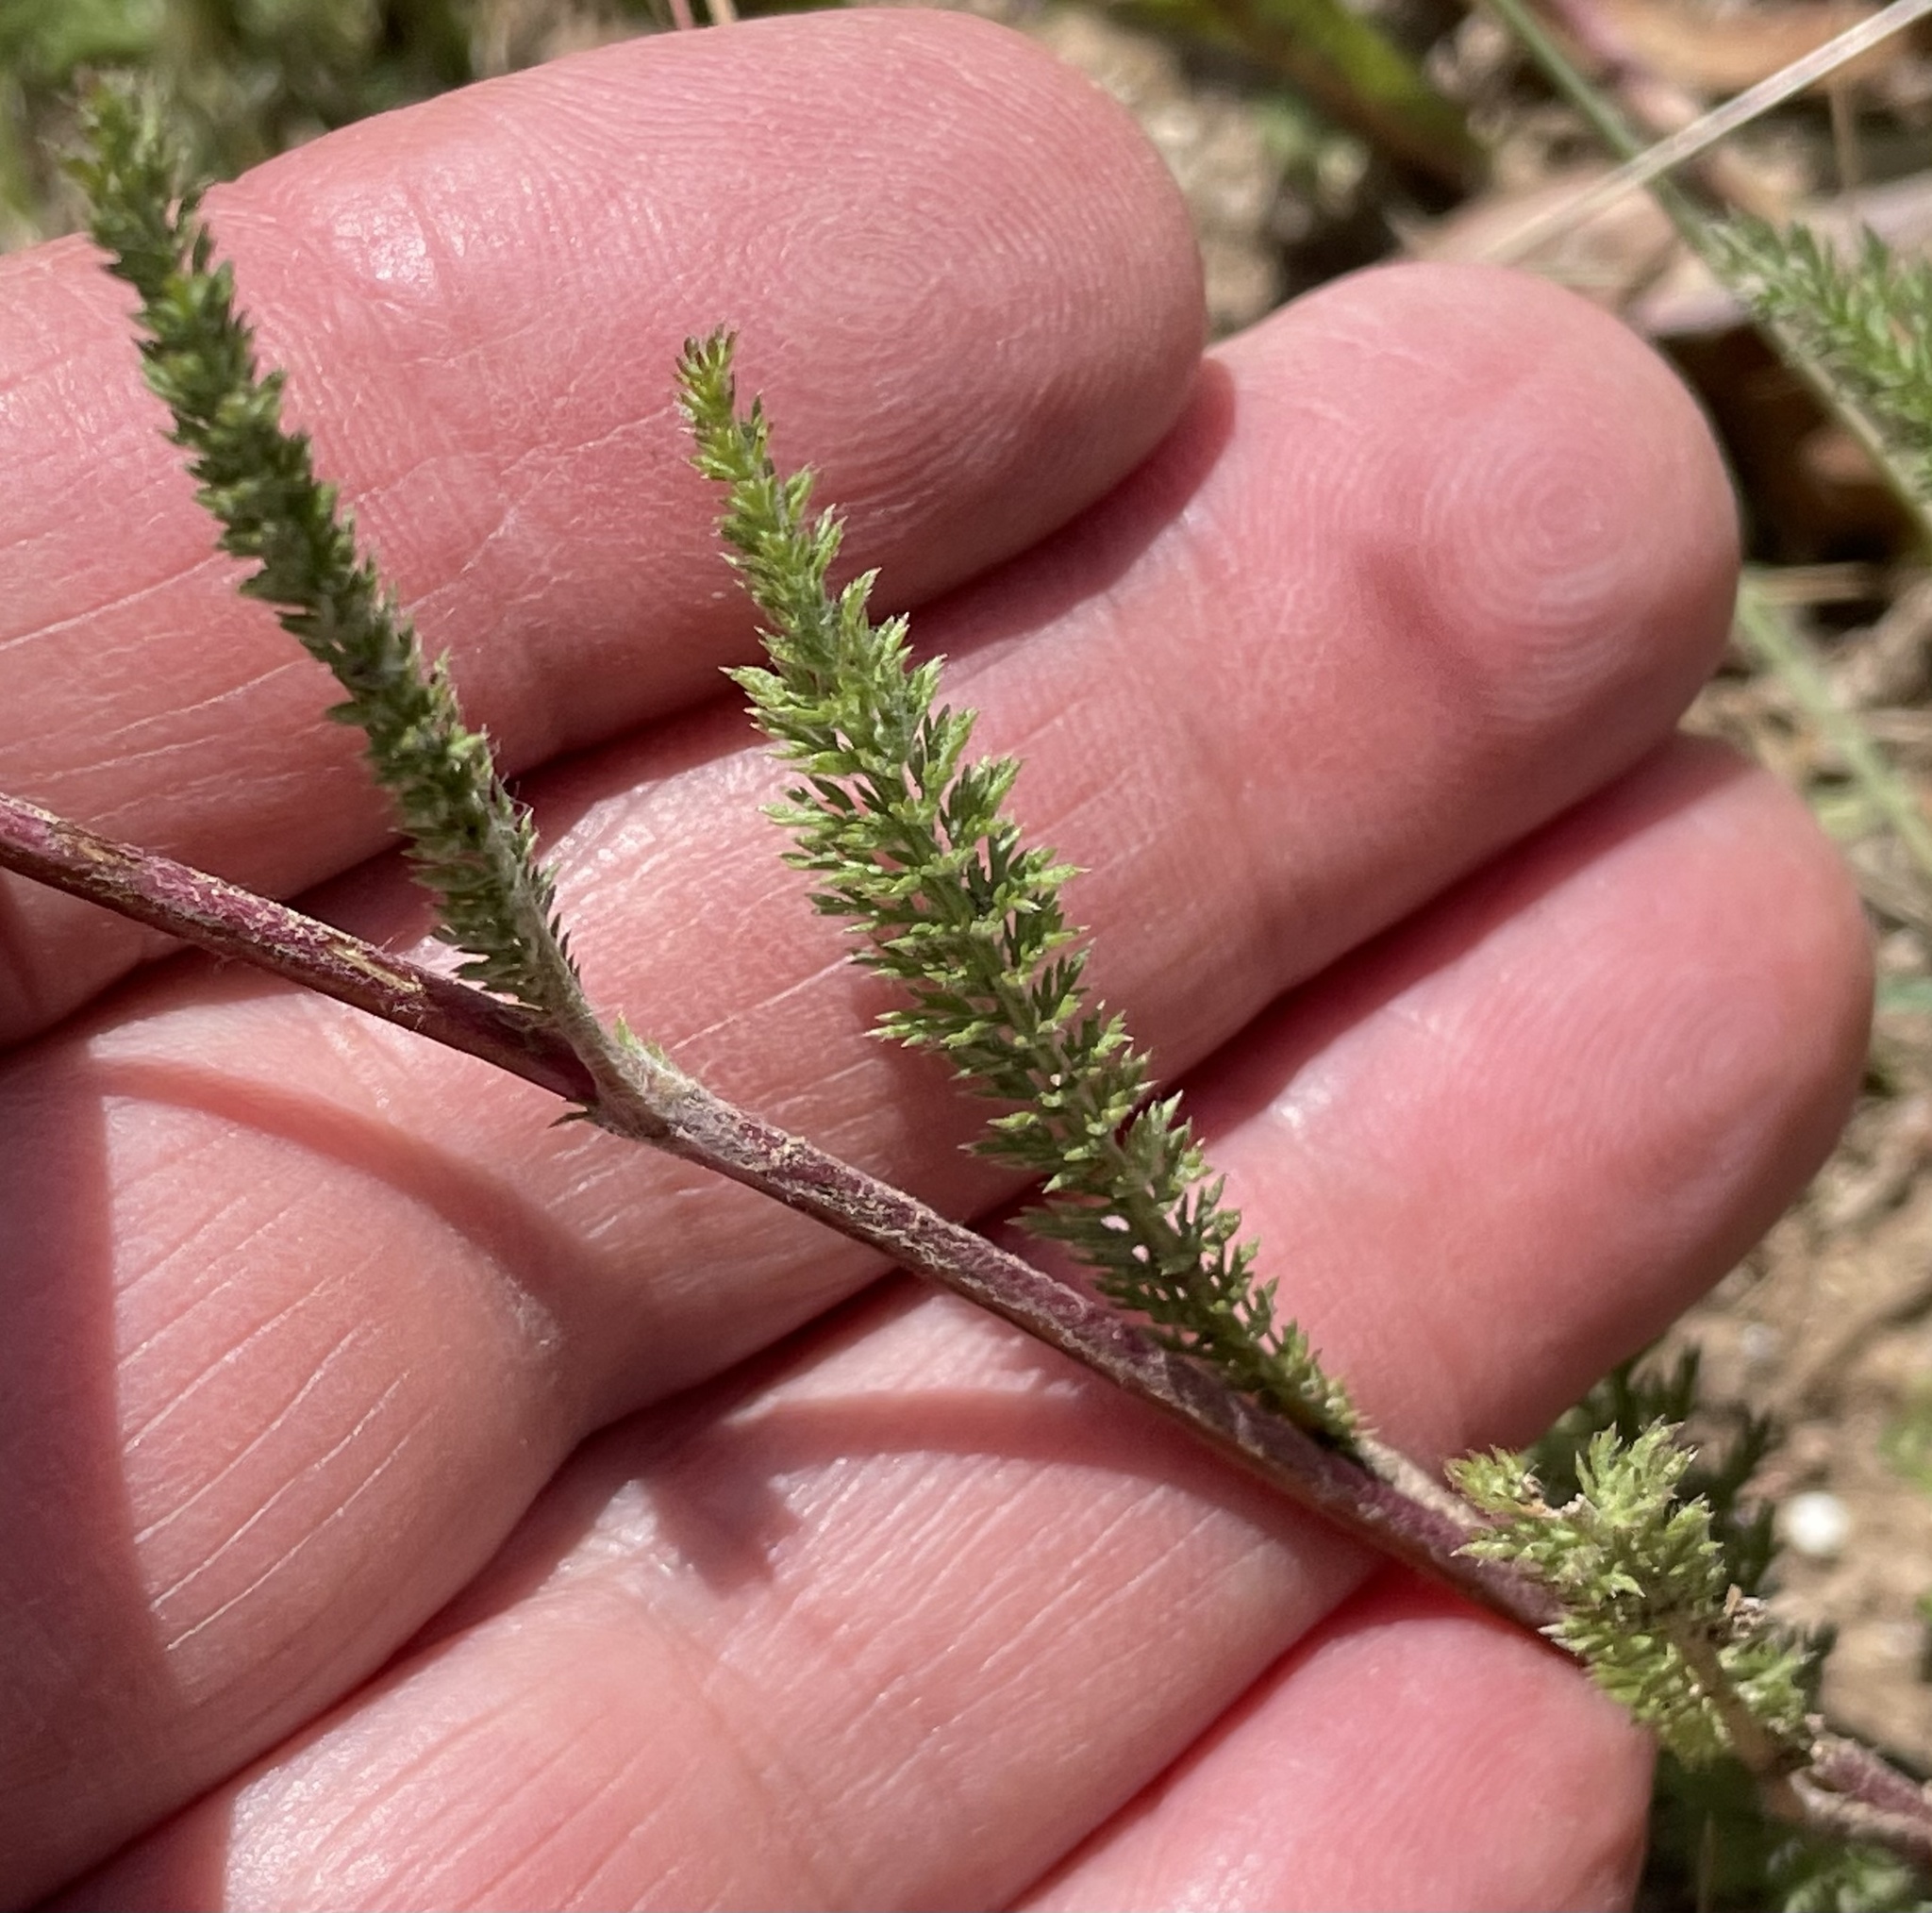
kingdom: Plantae
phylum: Tracheophyta
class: Magnoliopsida
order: Asterales
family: Asteraceae
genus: Achillea
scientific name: Achillea millefolium
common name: Yarrow
